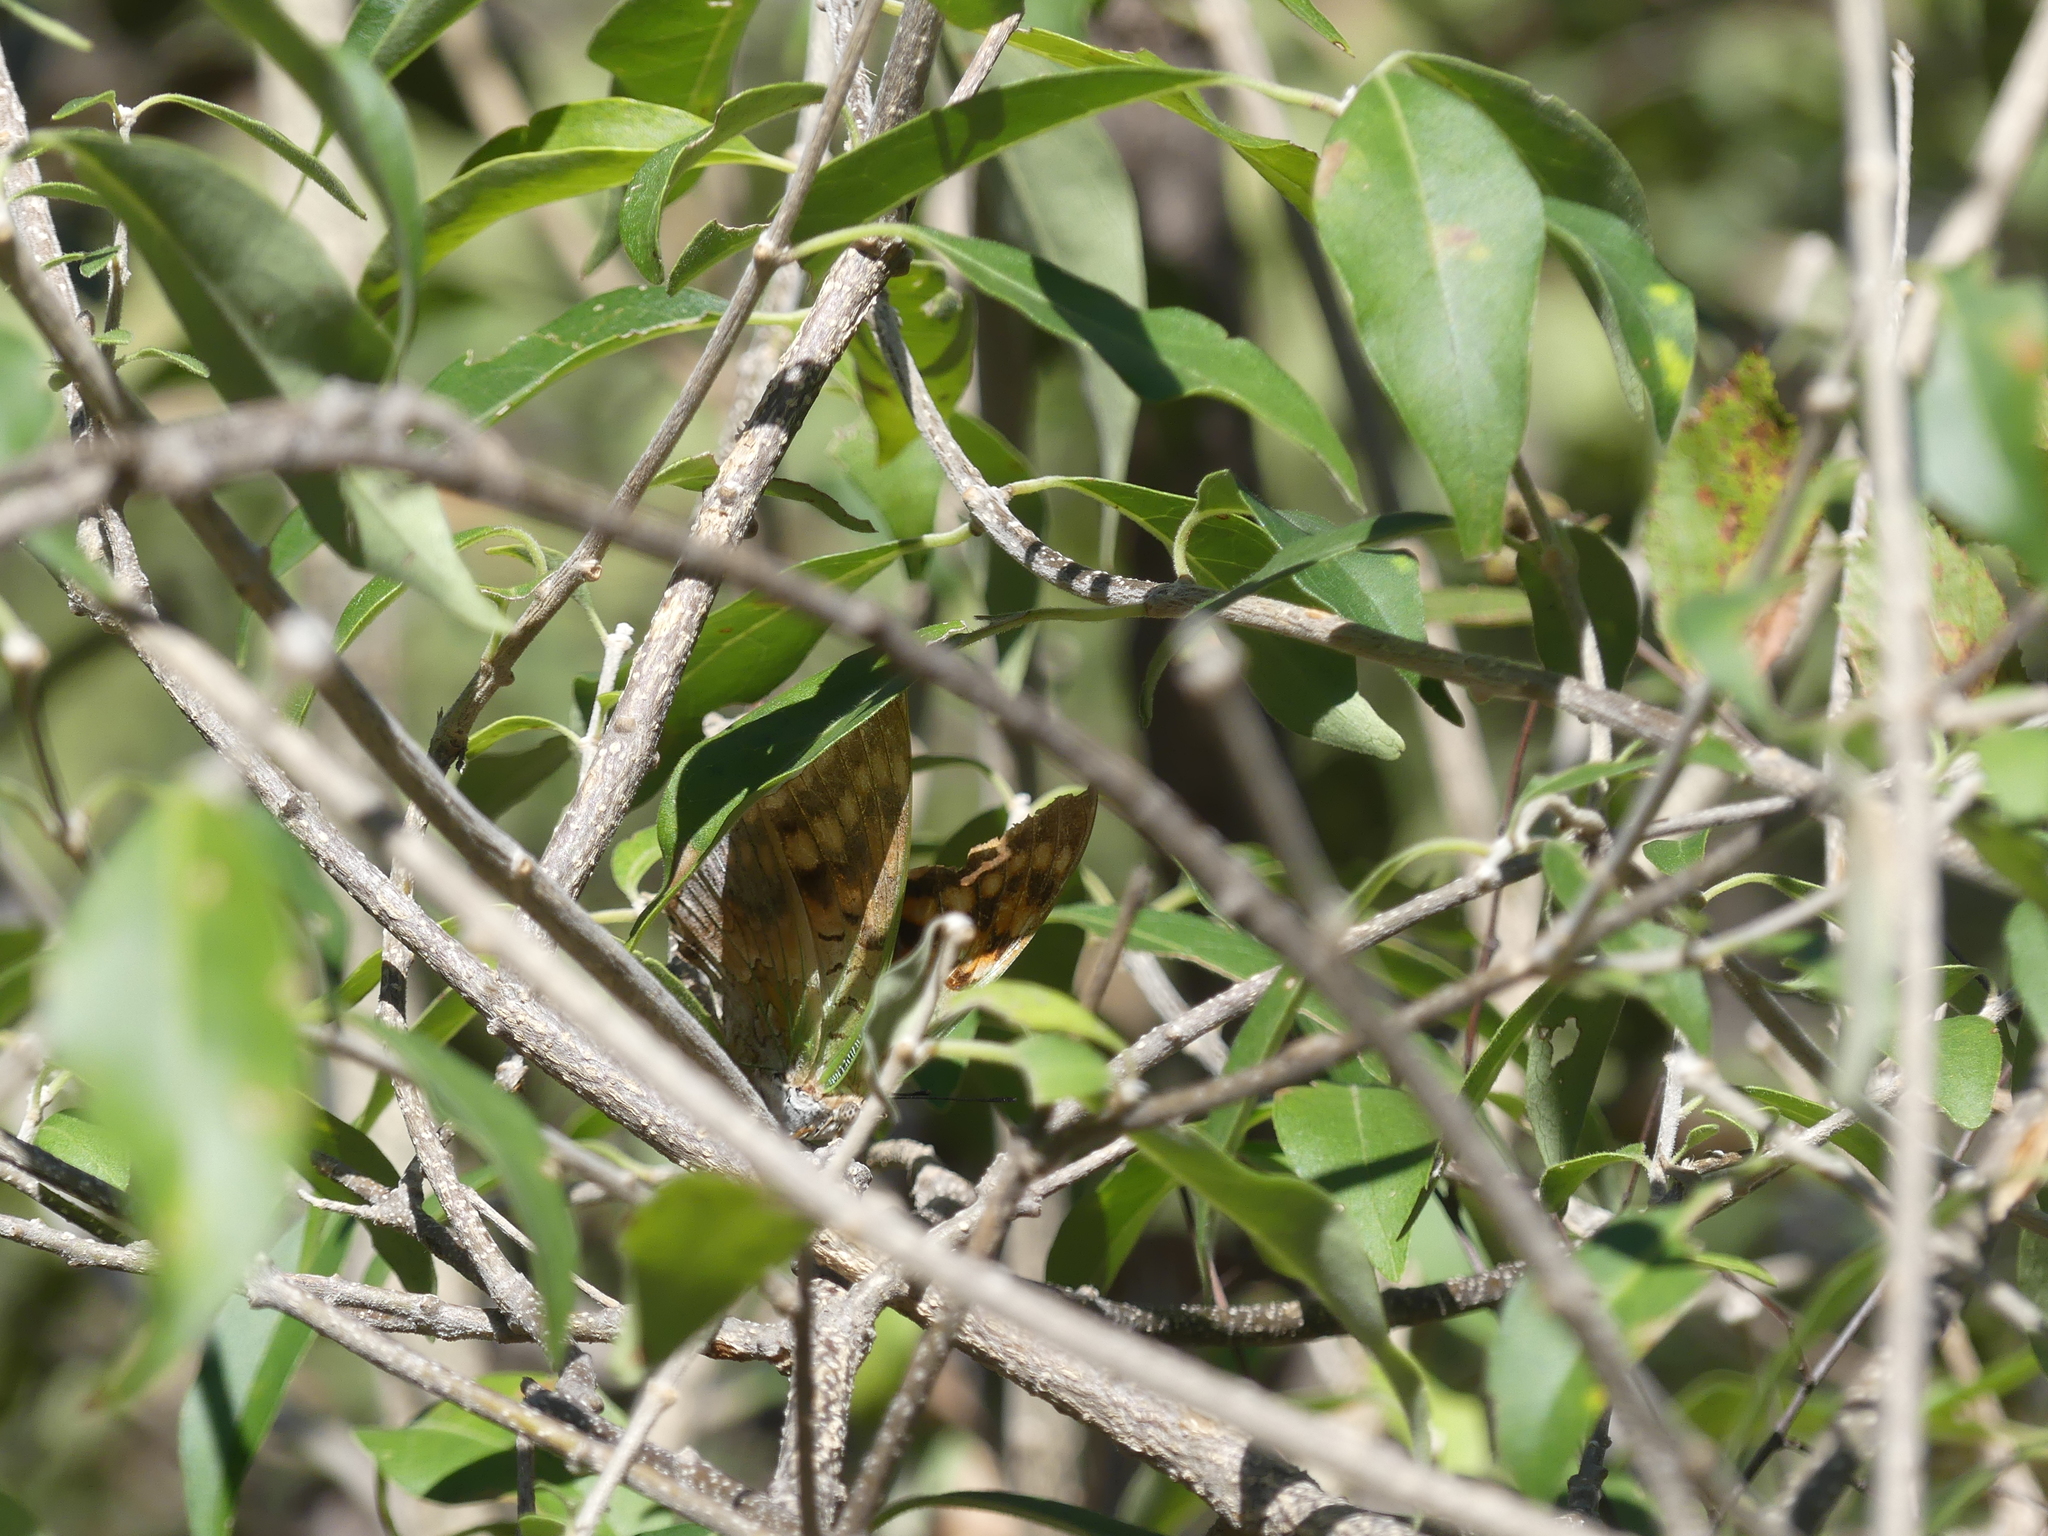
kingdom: Animalia
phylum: Arthropoda
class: Insecta
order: Lepidoptera
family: Nymphalidae
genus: Charaxes
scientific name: Charaxes candiope
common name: Green-veined charaxes
